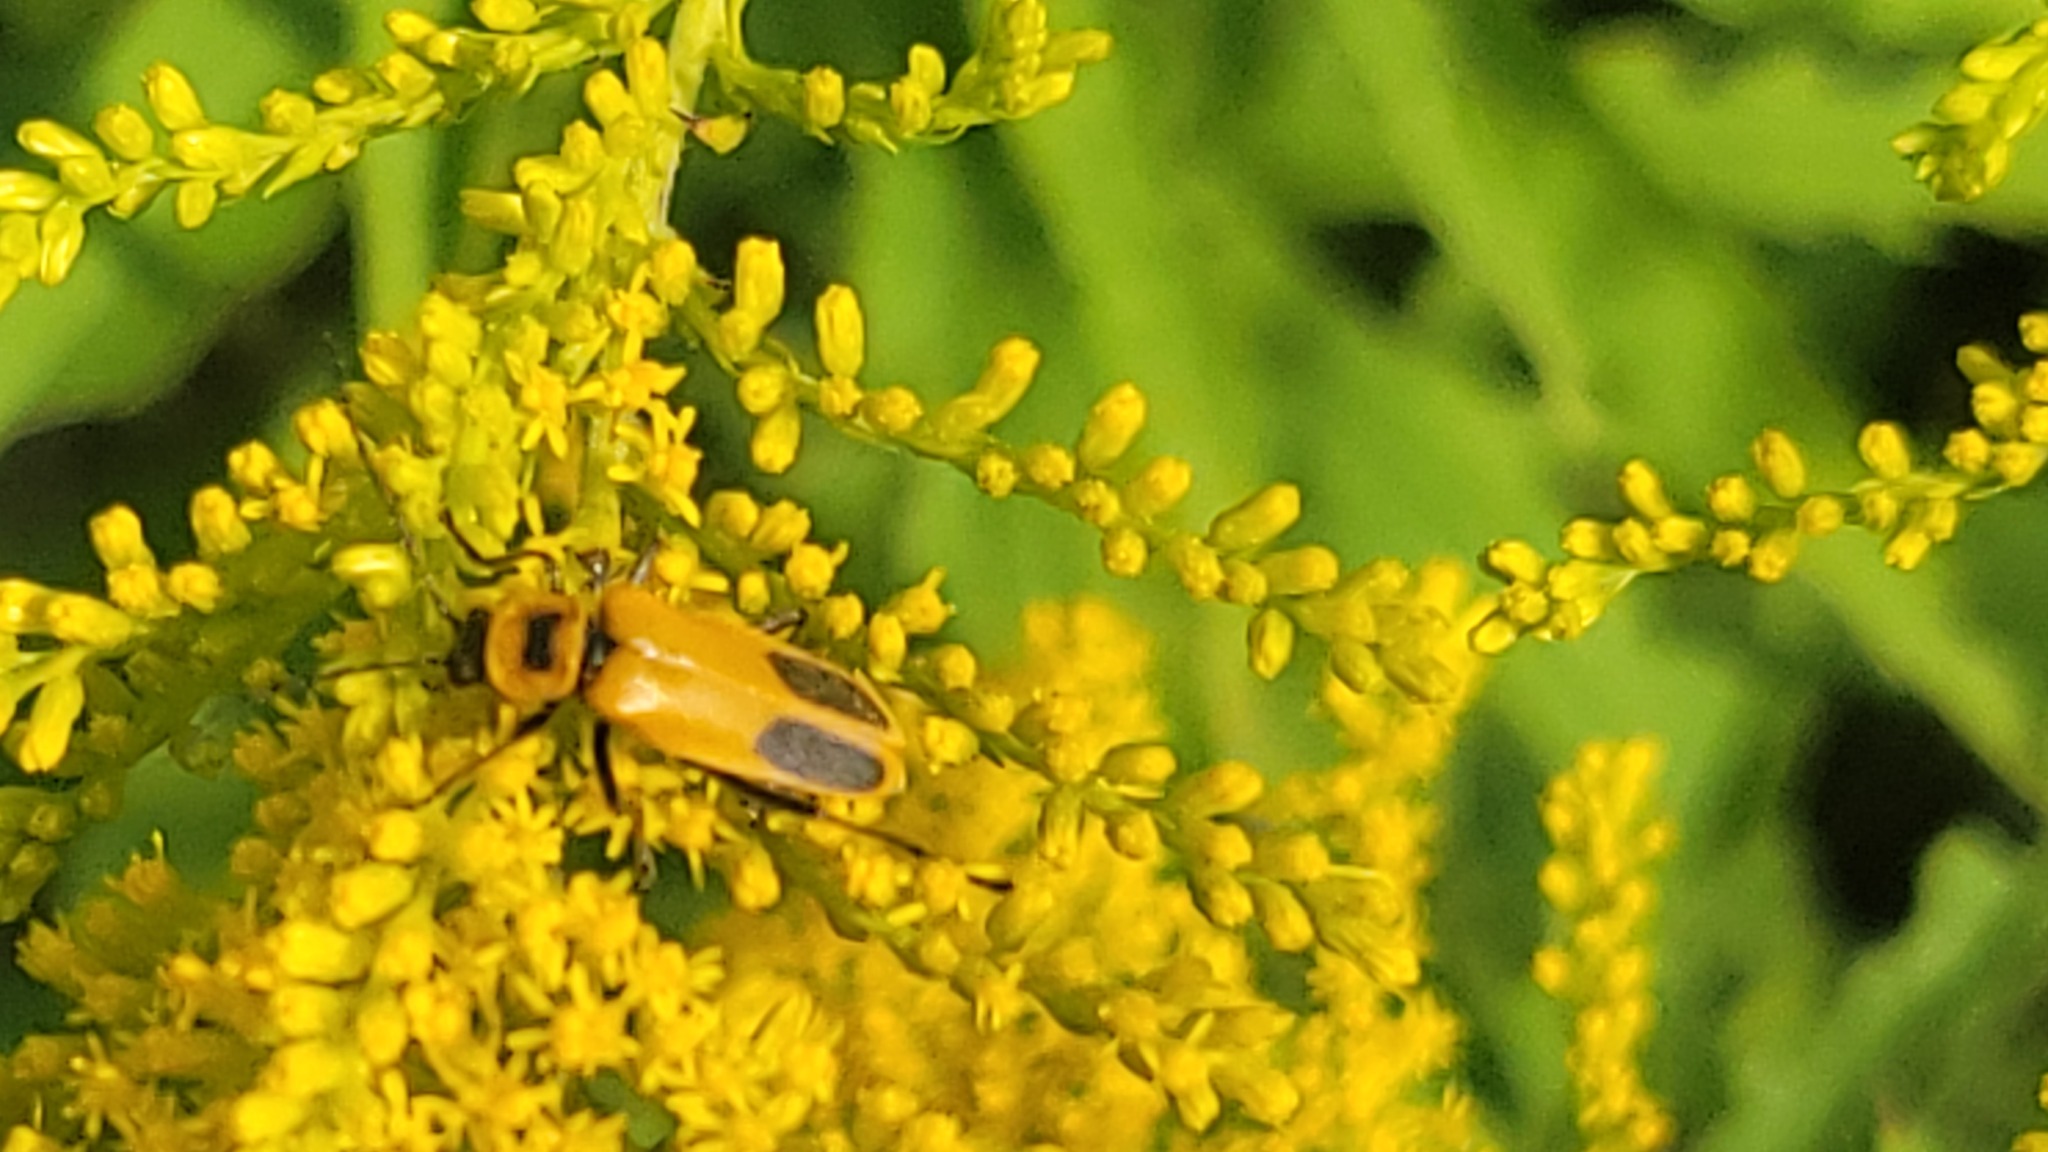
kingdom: Animalia
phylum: Arthropoda
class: Insecta
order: Coleoptera
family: Cantharidae
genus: Chauliognathus
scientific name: Chauliognathus pensylvanicus
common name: Goldenrod soldier beetle
